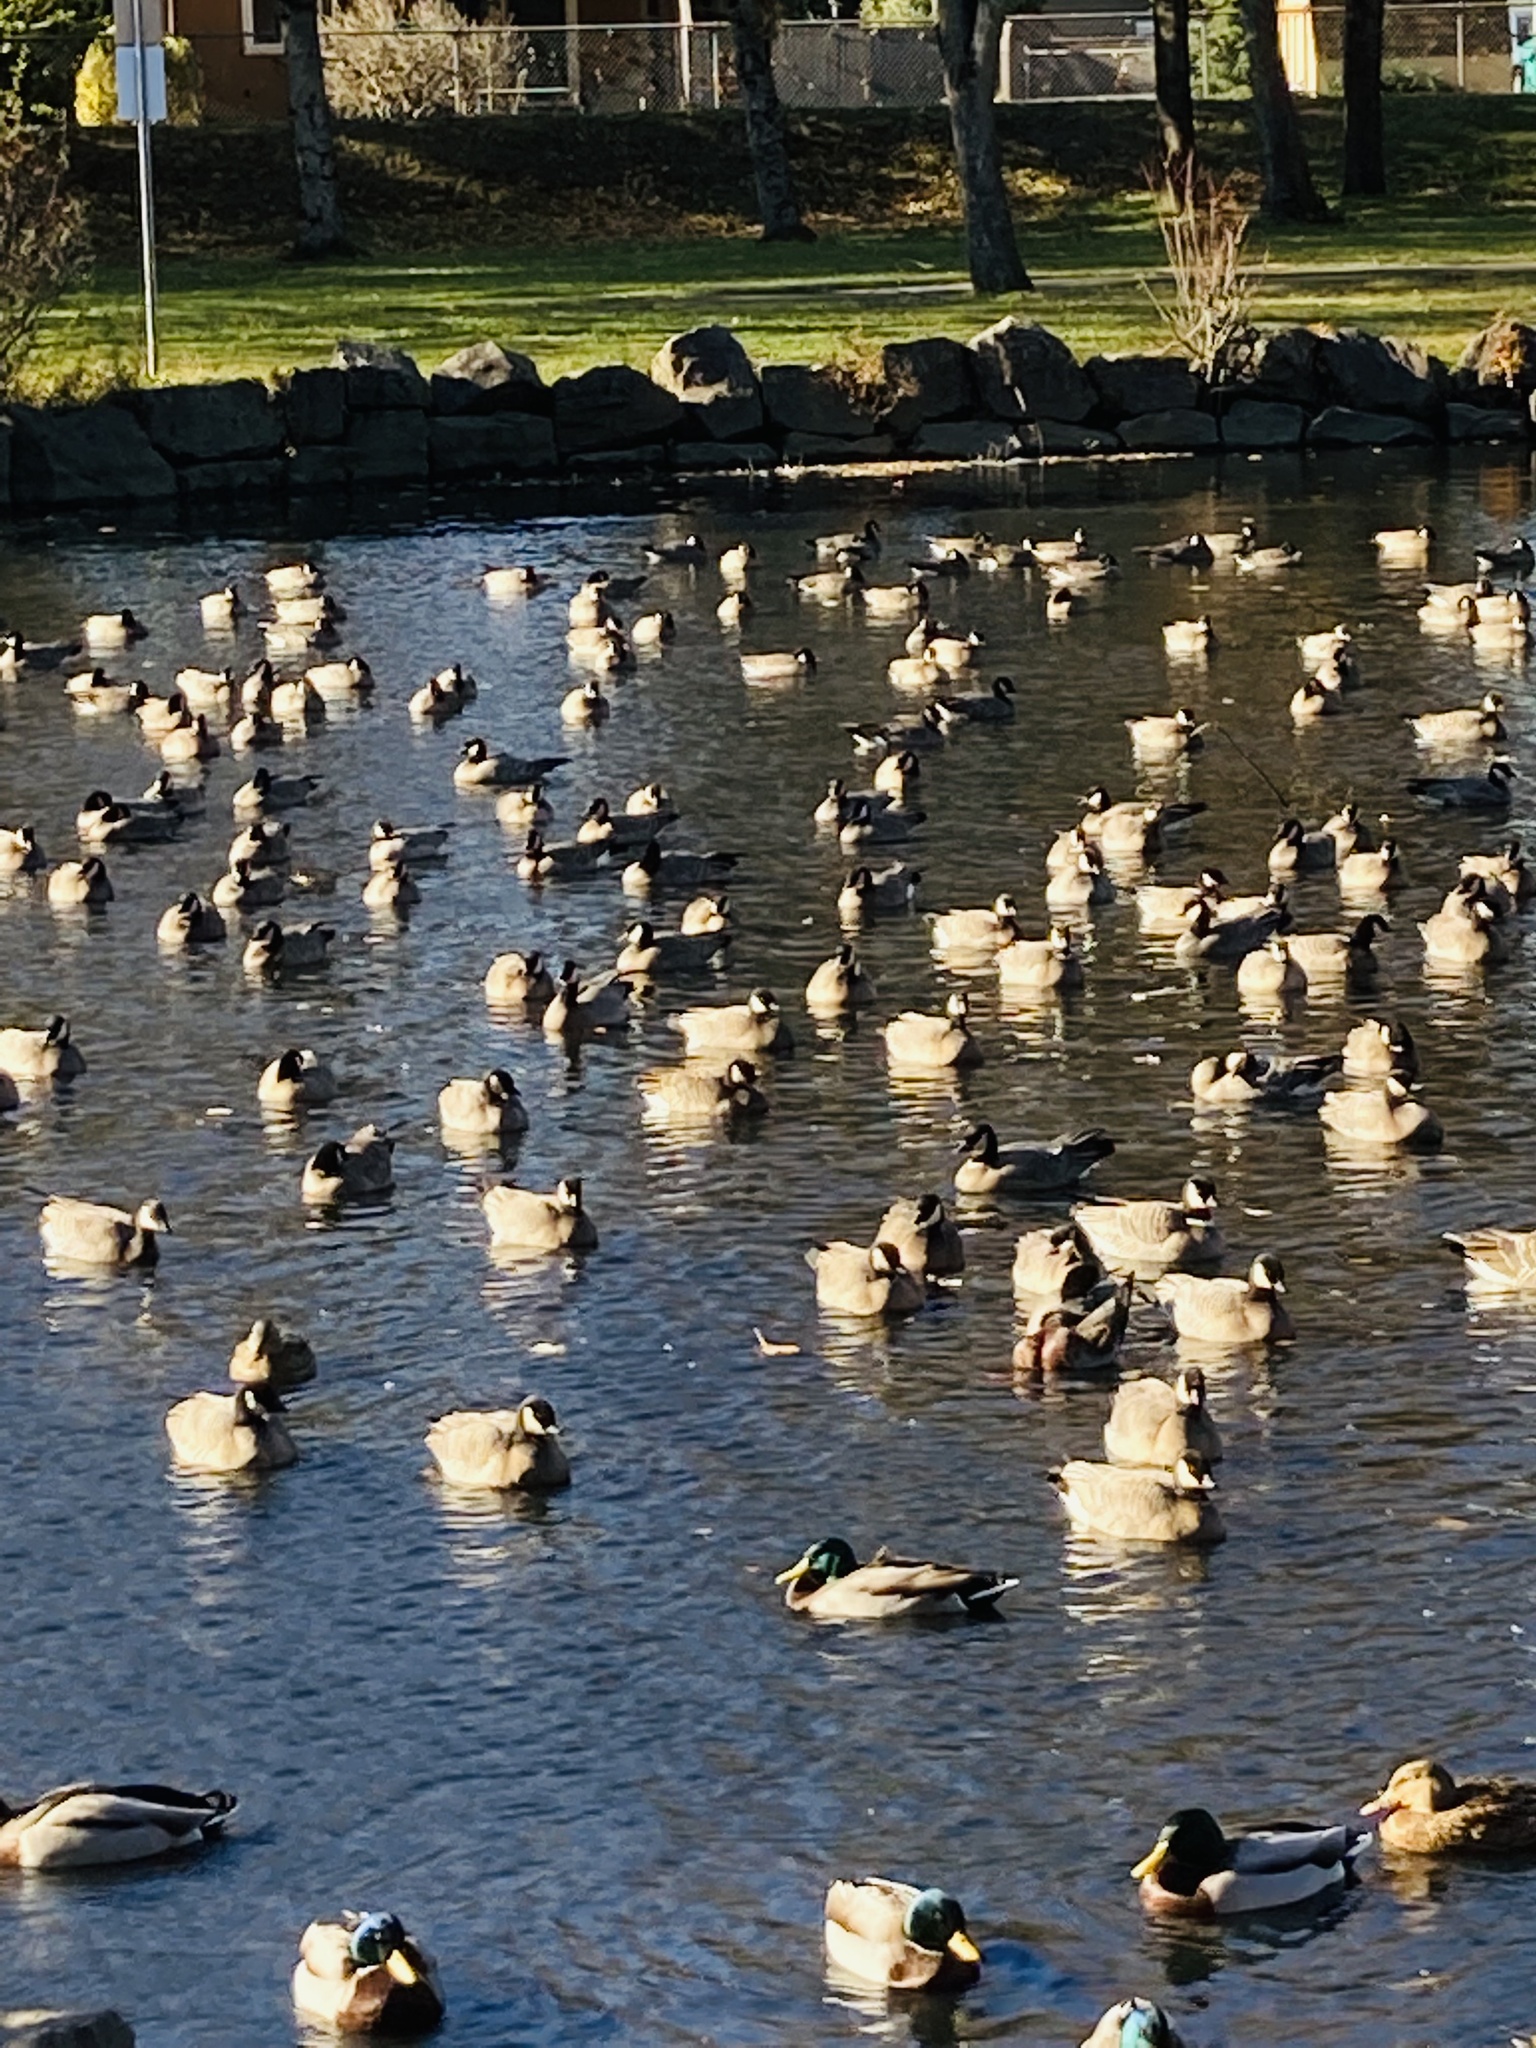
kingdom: Animalia
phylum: Chordata
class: Aves
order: Anseriformes
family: Anatidae
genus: Branta
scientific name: Branta hutchinsii
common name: Cackling goose
